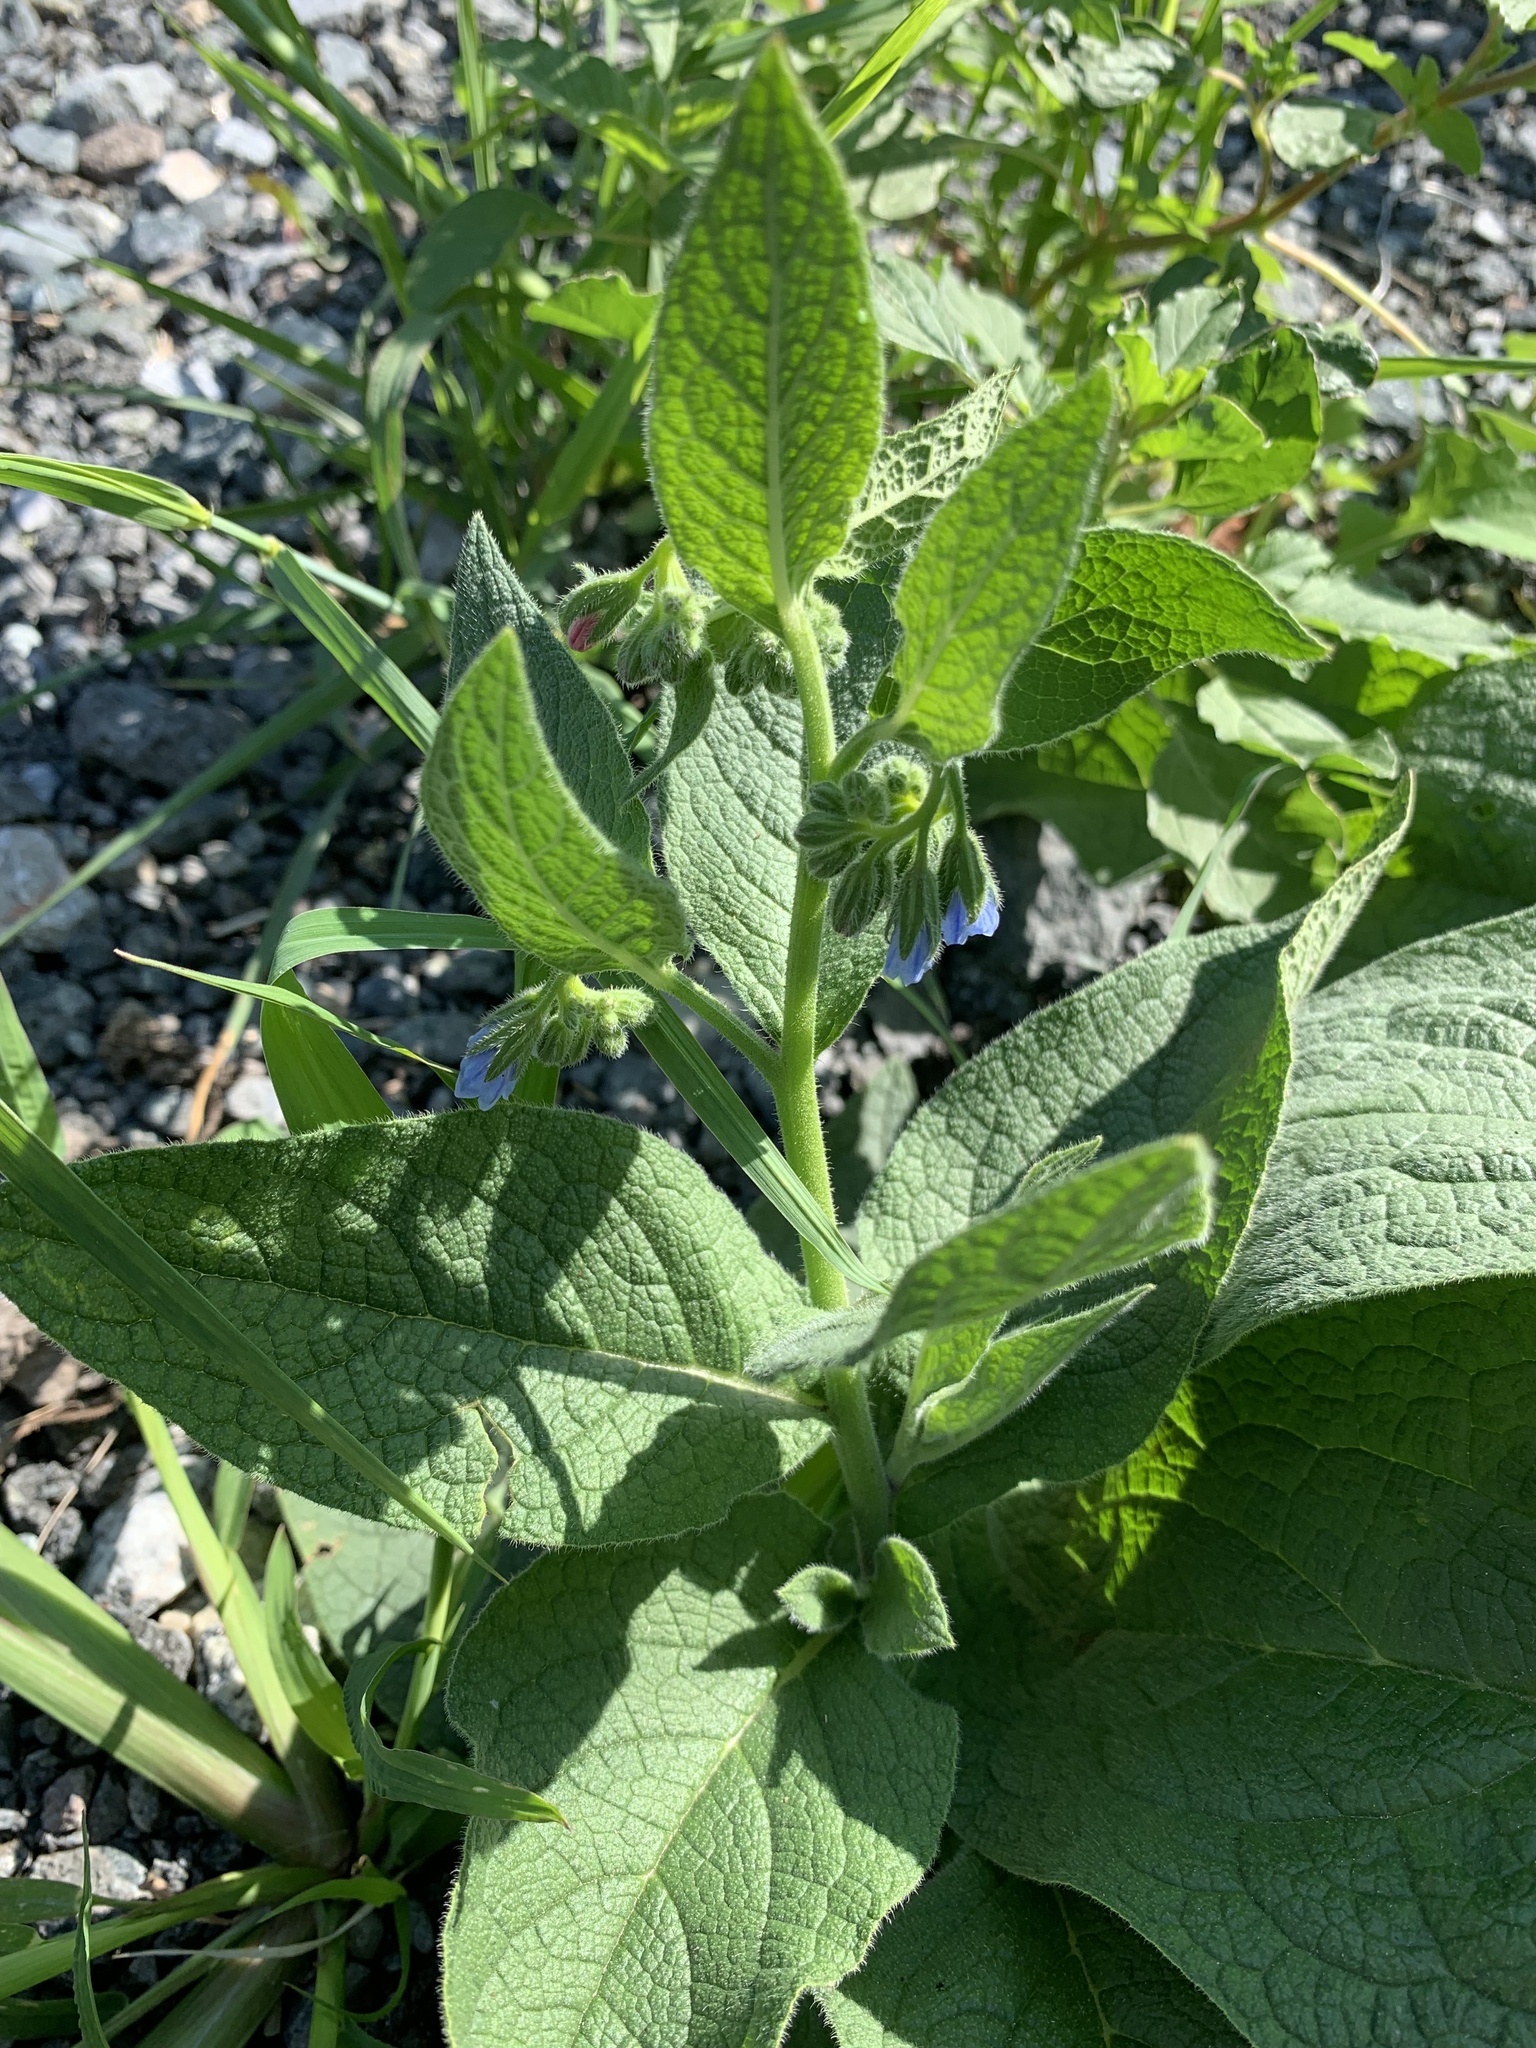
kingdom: Plantae
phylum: Tracheophyta
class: Magnoliopsida
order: Boraginales
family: Boraginaceae
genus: Symphytum
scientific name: Symphytum caucasicum
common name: Caucasian comfrey
